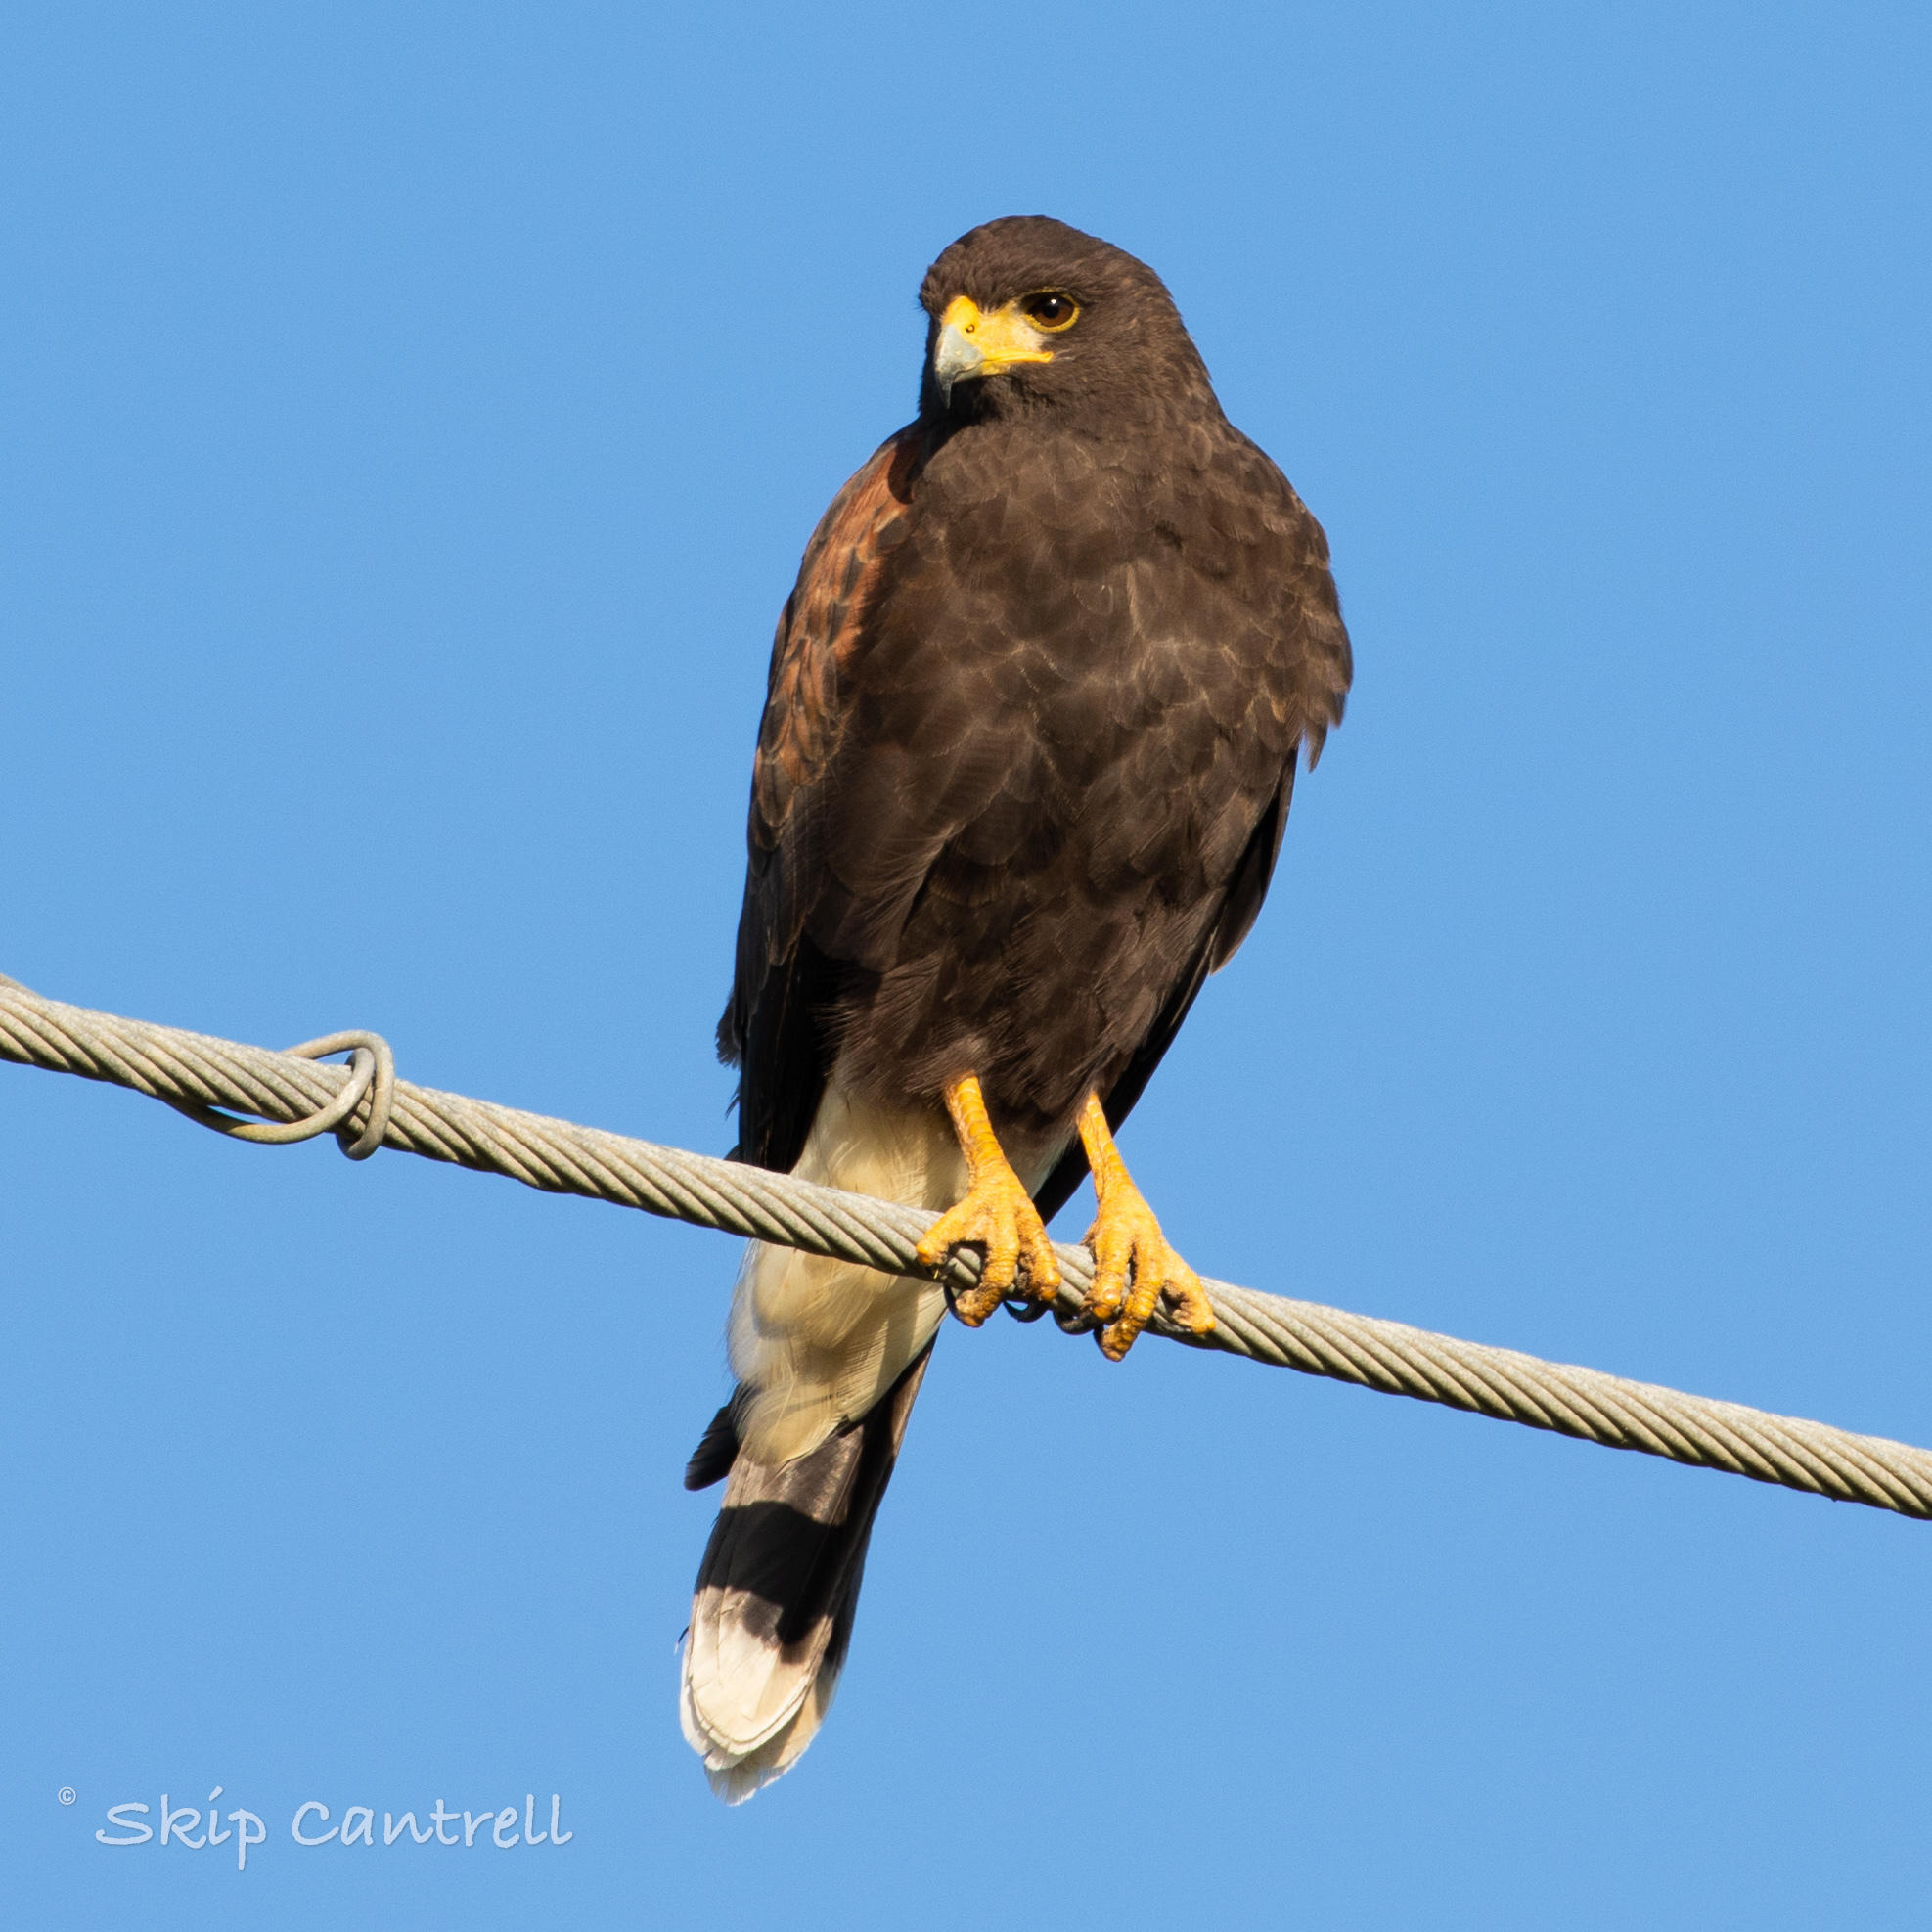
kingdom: Animalia
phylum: Chordata
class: Aves
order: Accipitriformes
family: Accipitridae
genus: Parabuteo
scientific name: Parabuteo unicinctus
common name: Harris's hawk
